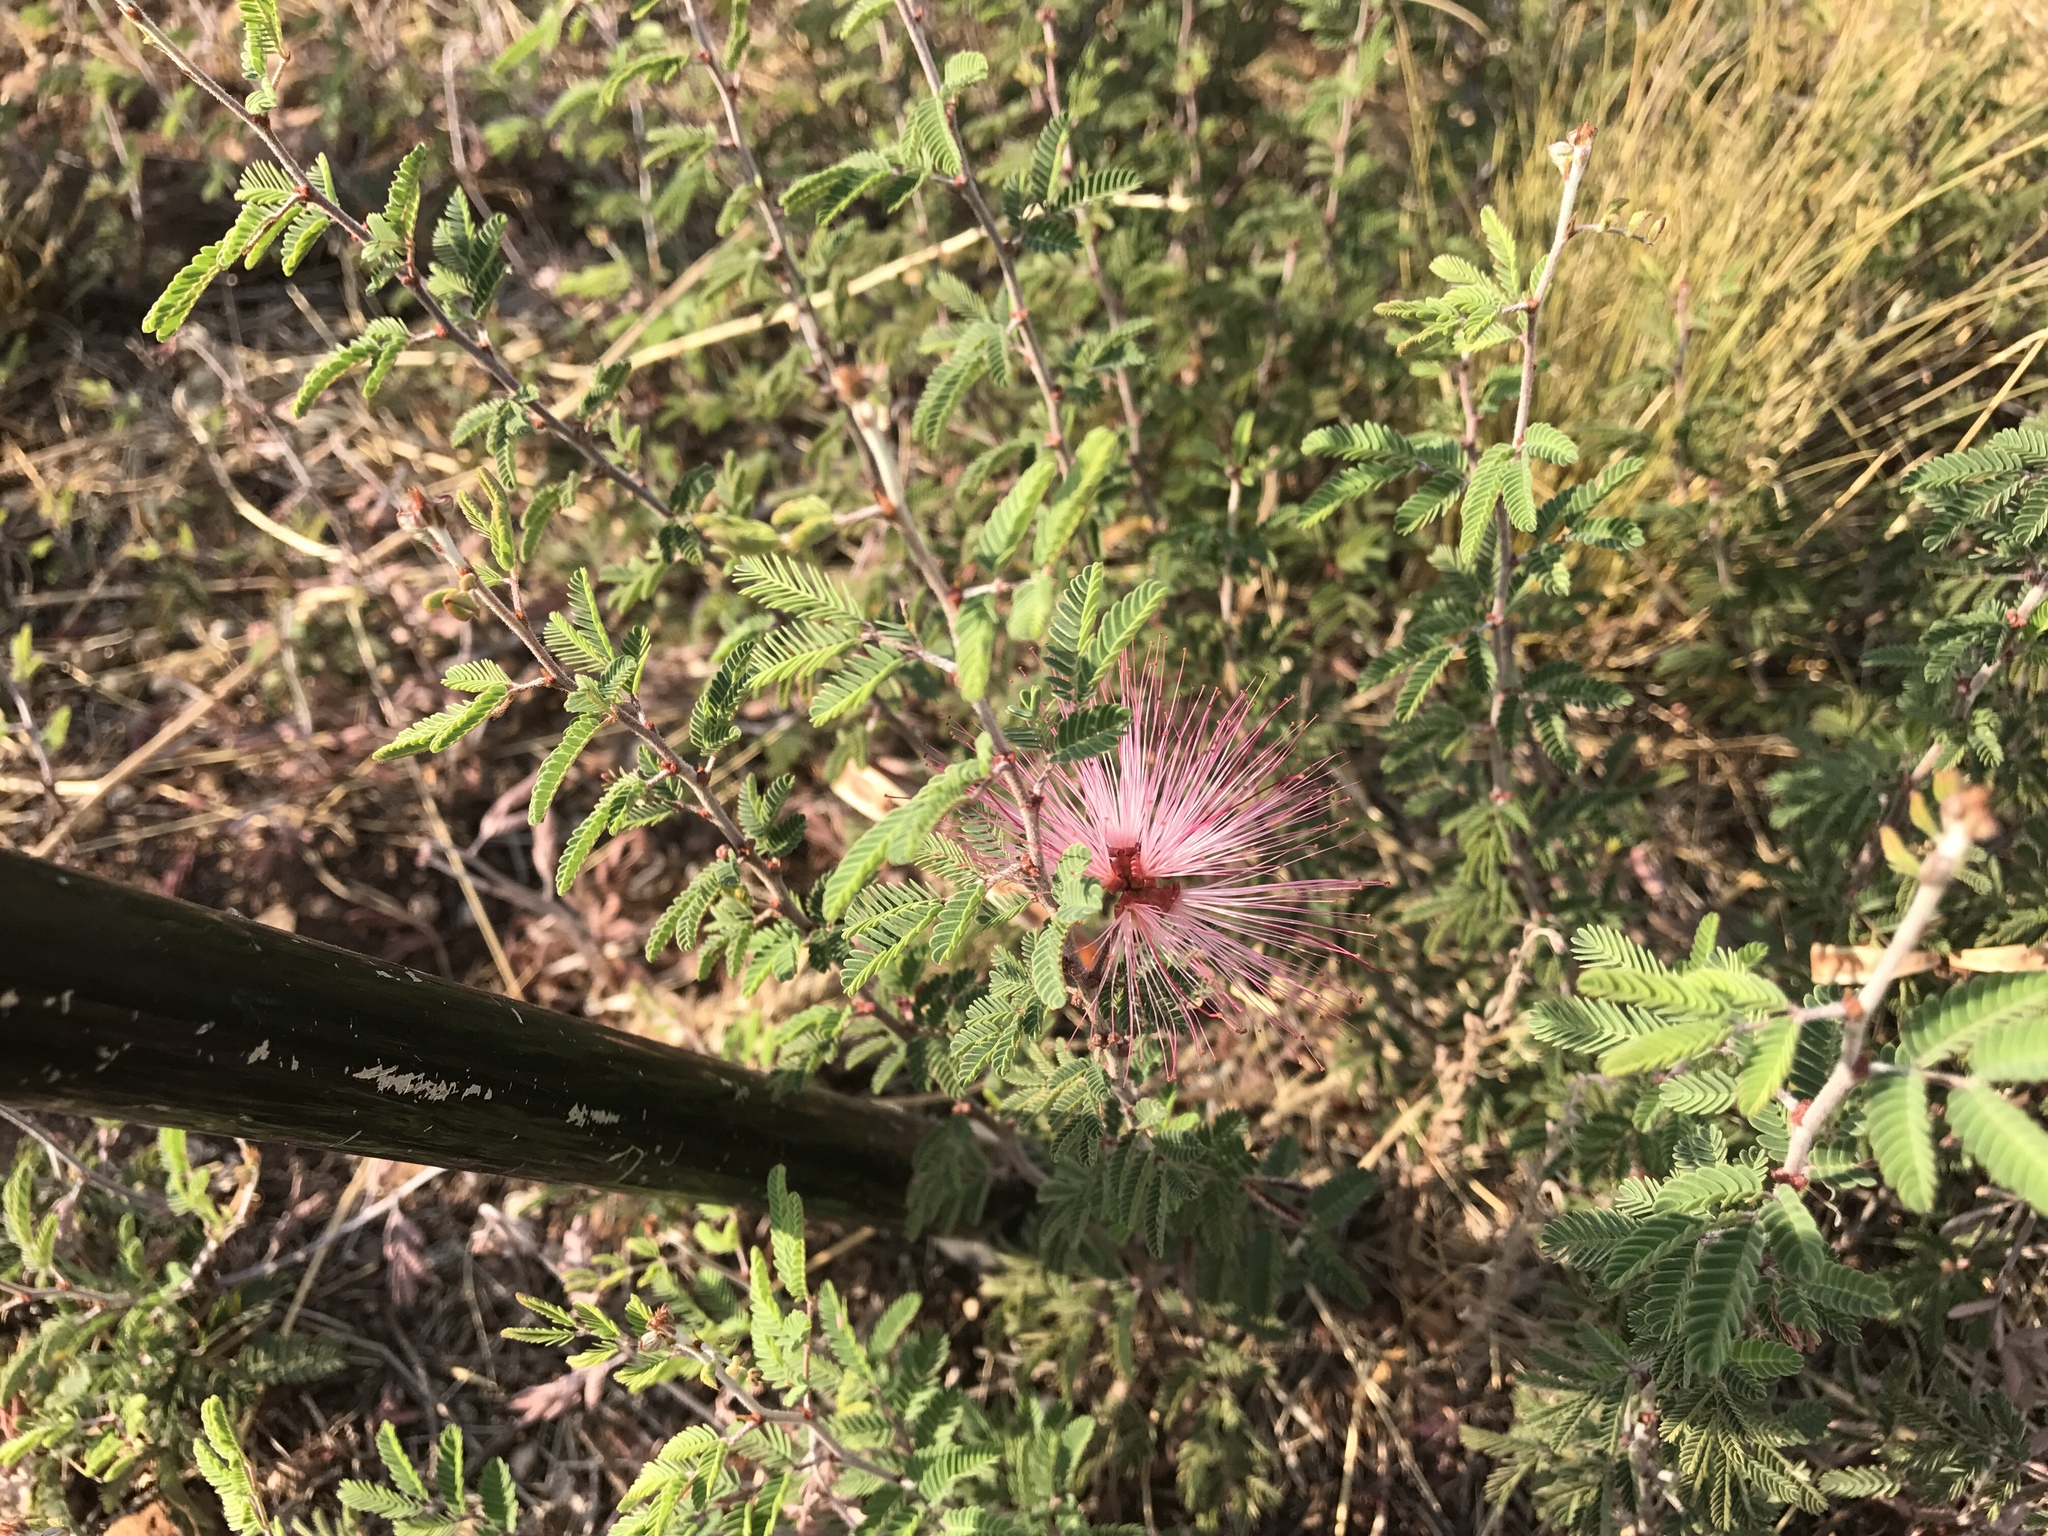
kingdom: Plantae
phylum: Tracheophyta
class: Magnoliopsida
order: Fabales
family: Fabaceae
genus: Calliandra
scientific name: Calliandra eriophylla
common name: Fairy-duster
